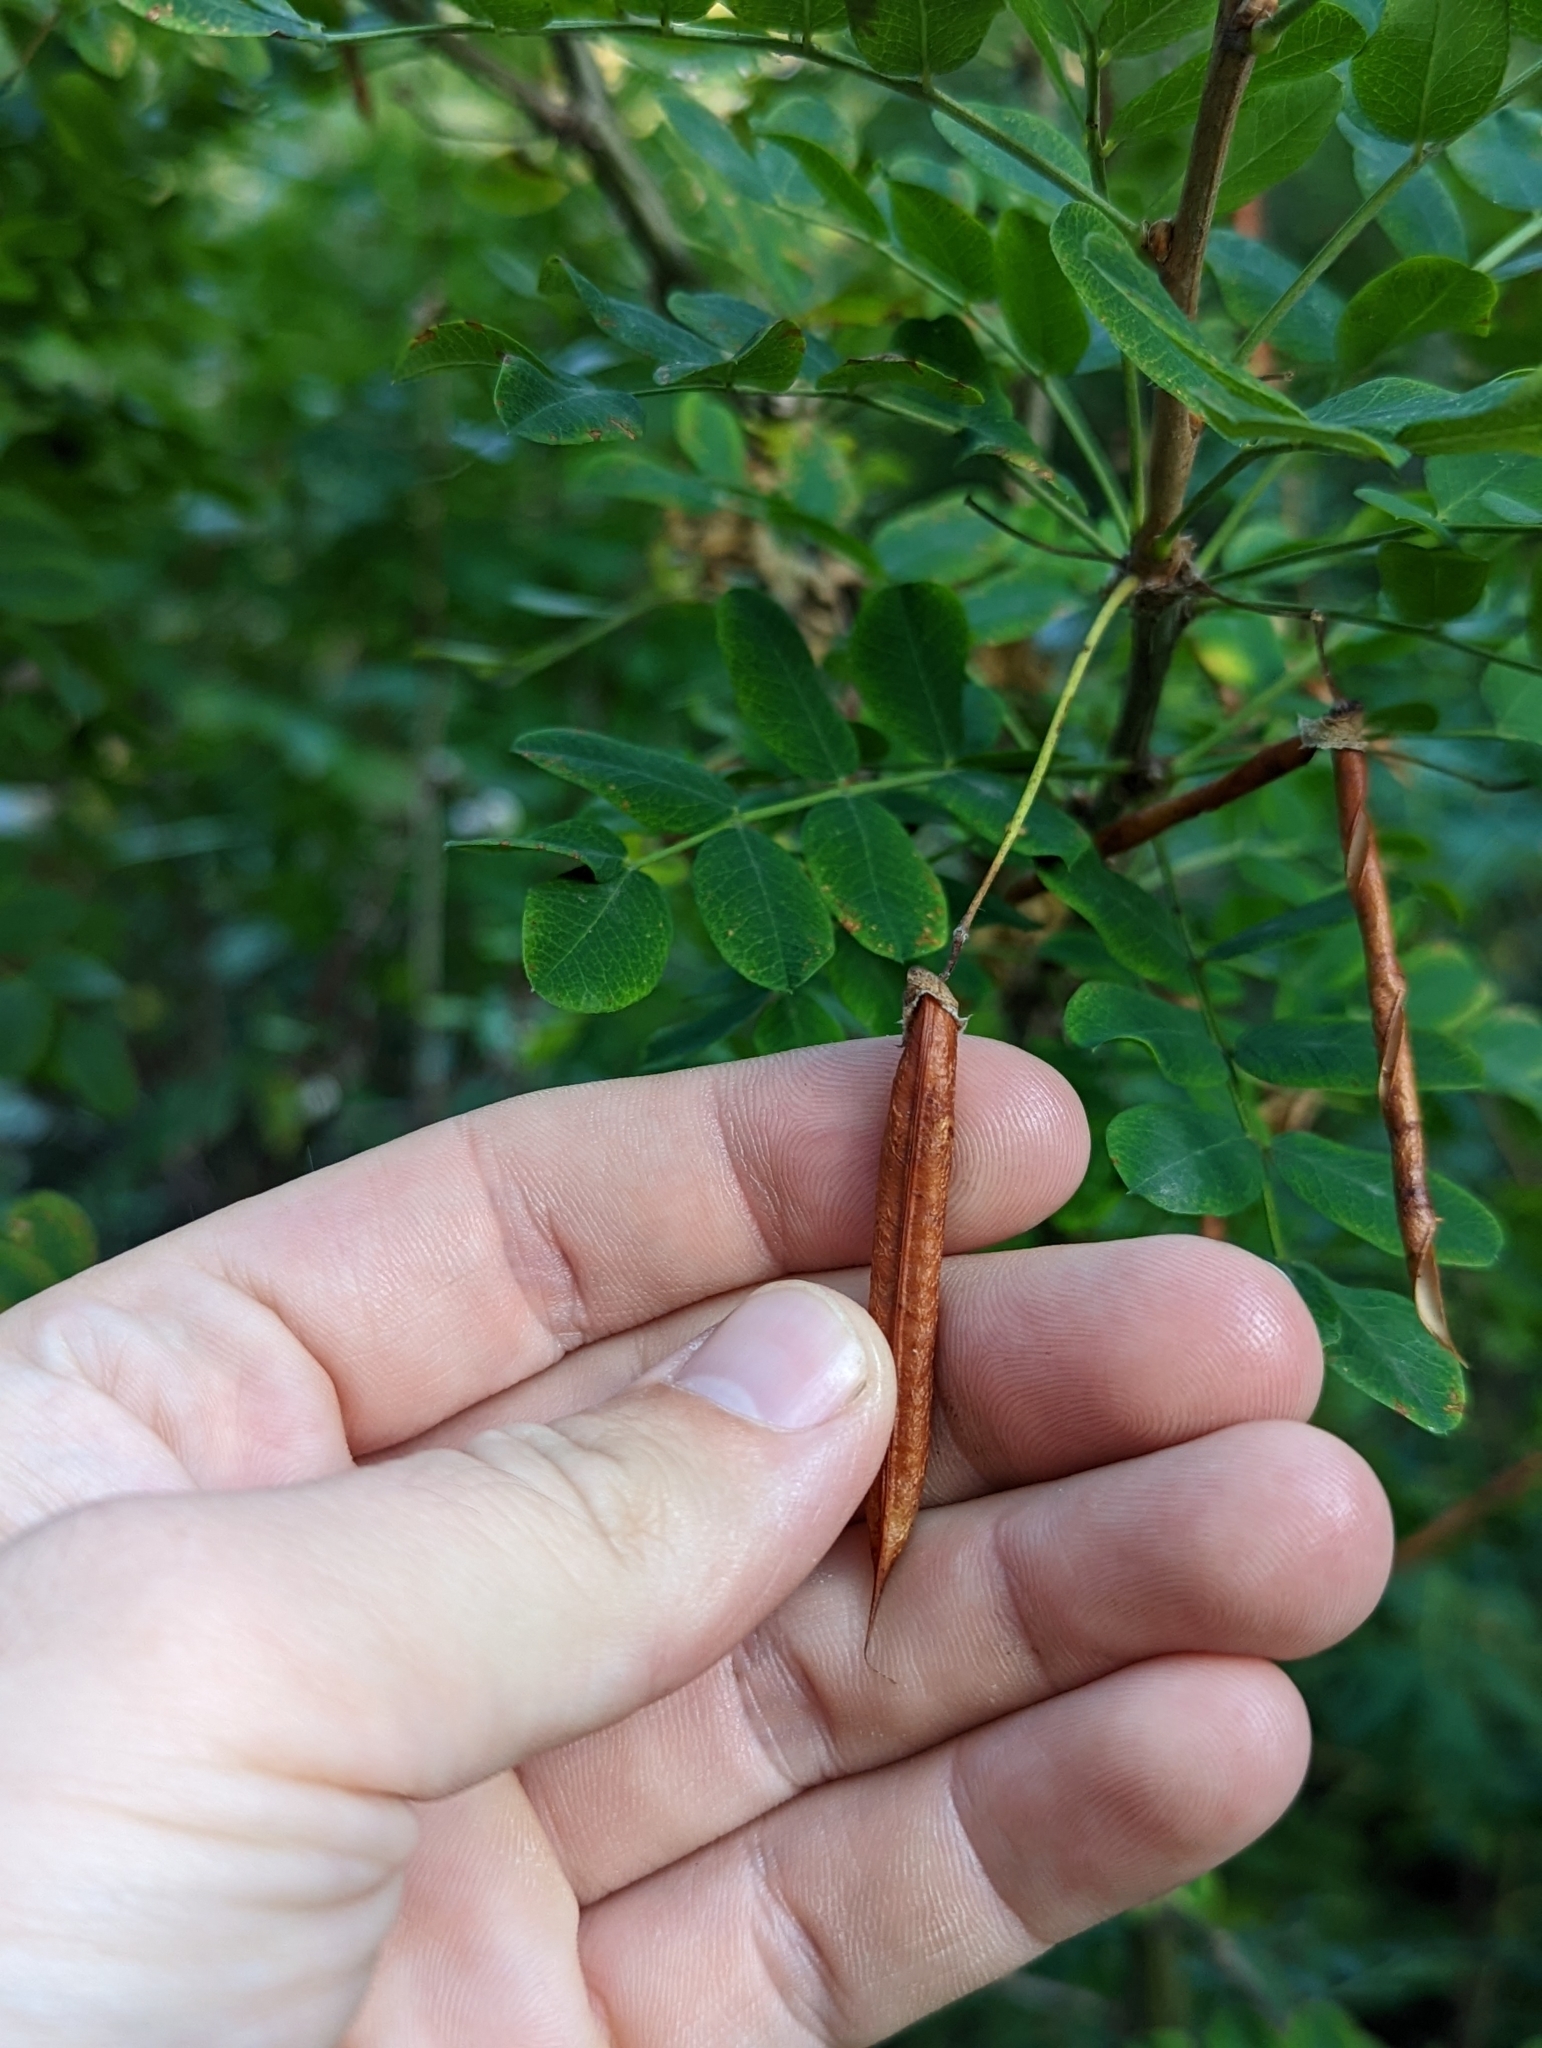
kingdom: Plantae
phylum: Tracheophyta
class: Magnoliopsida
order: Fabales
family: Fabaceae
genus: Caragana
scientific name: Caragana arborescens
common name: Siberian peashrub
